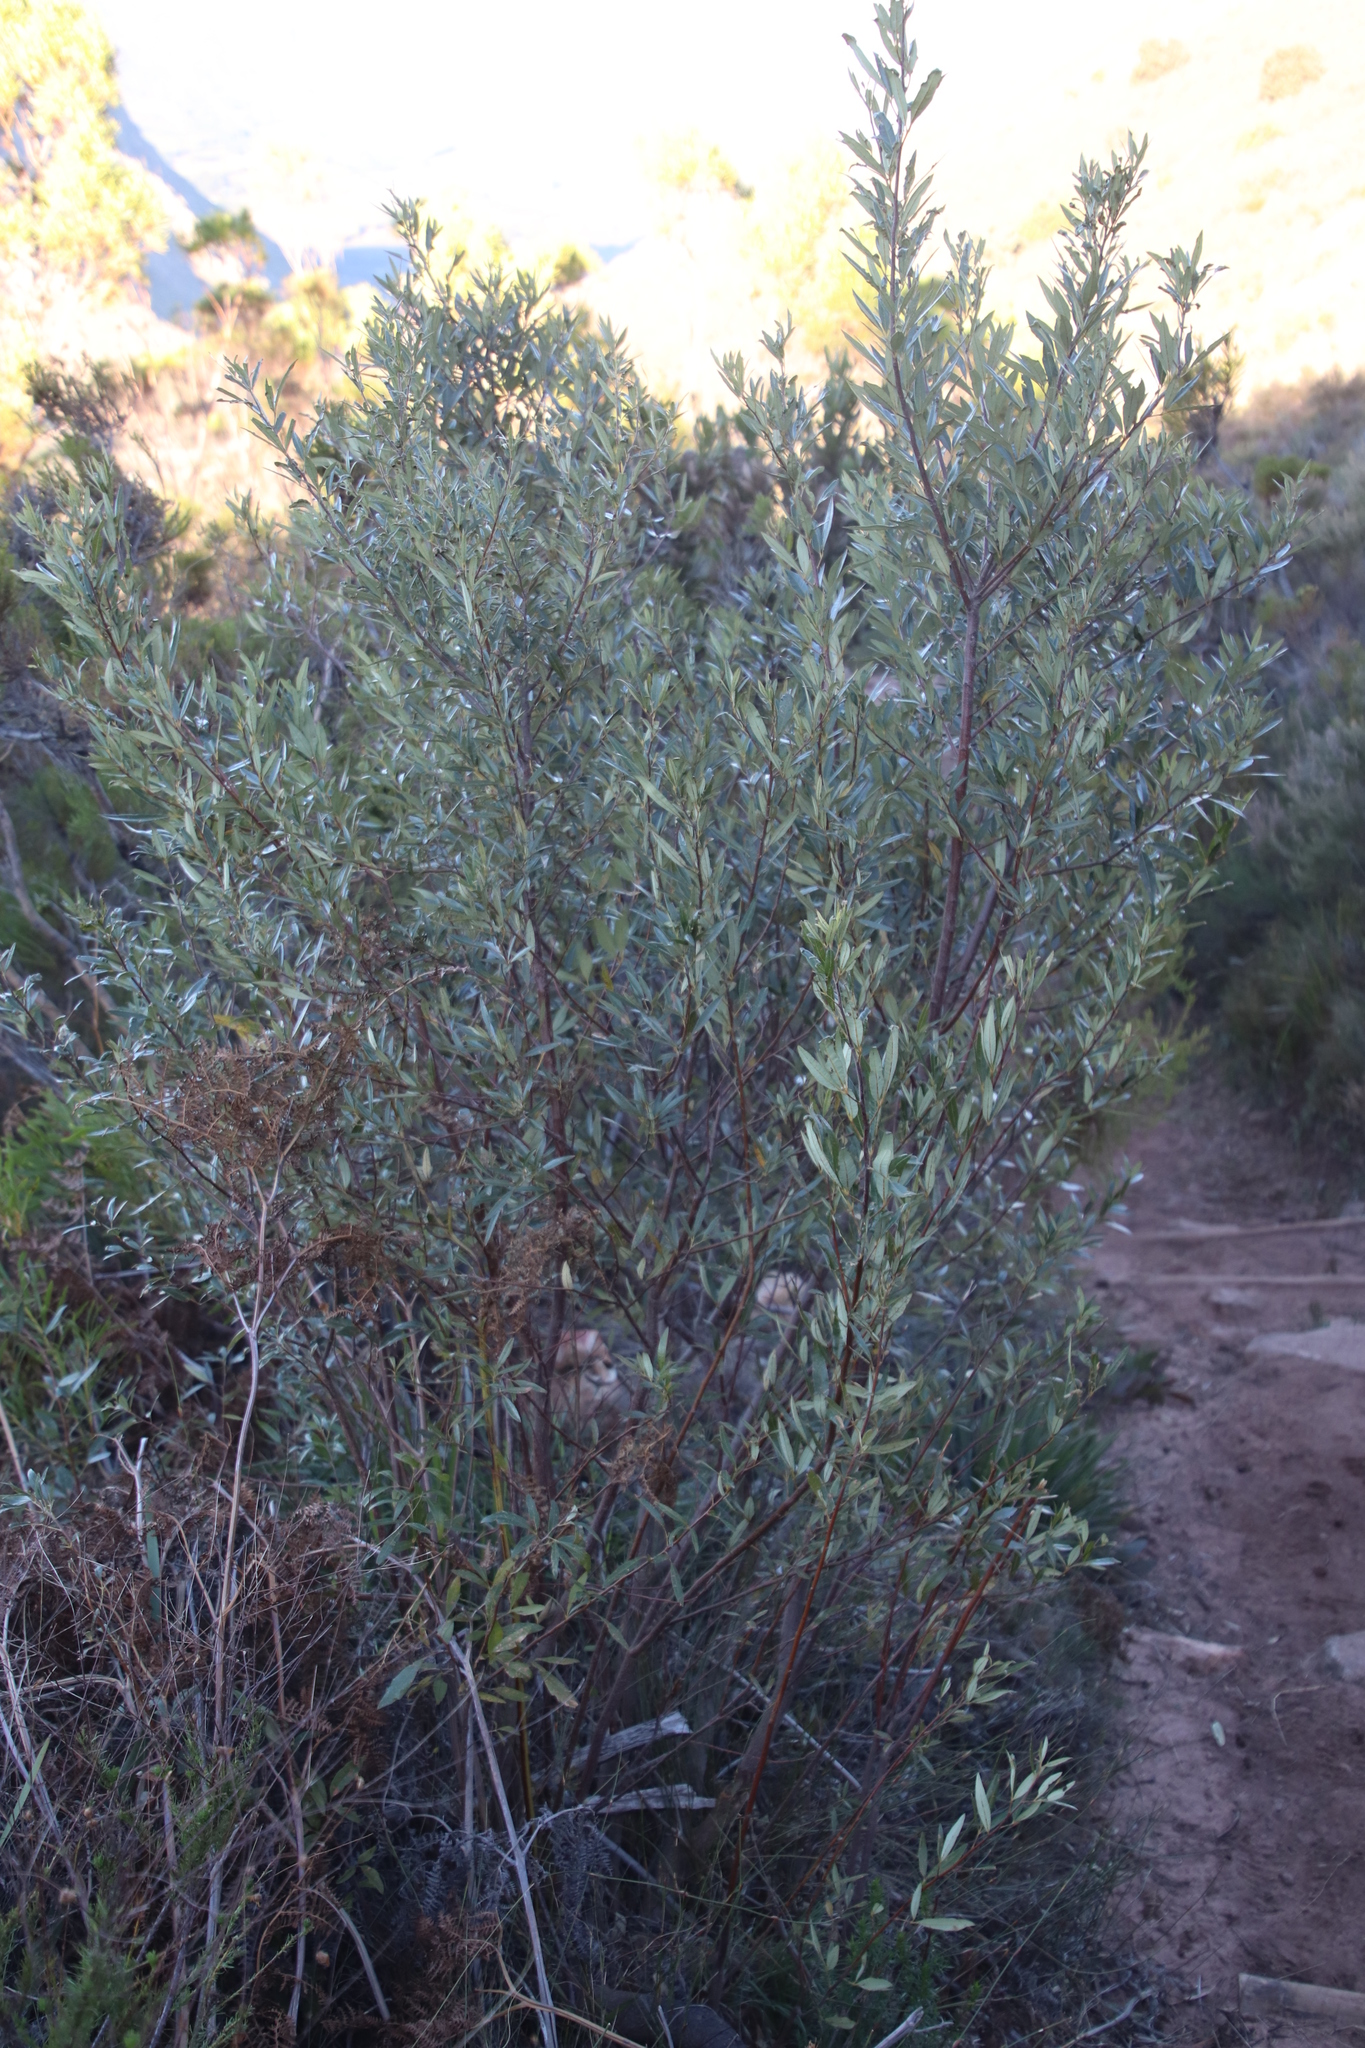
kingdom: Plantae
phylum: Tracheophyta
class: Magnoliopsida
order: Sapindales
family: Anacardiaceae
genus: Searsia
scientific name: Searsia angustifolia
